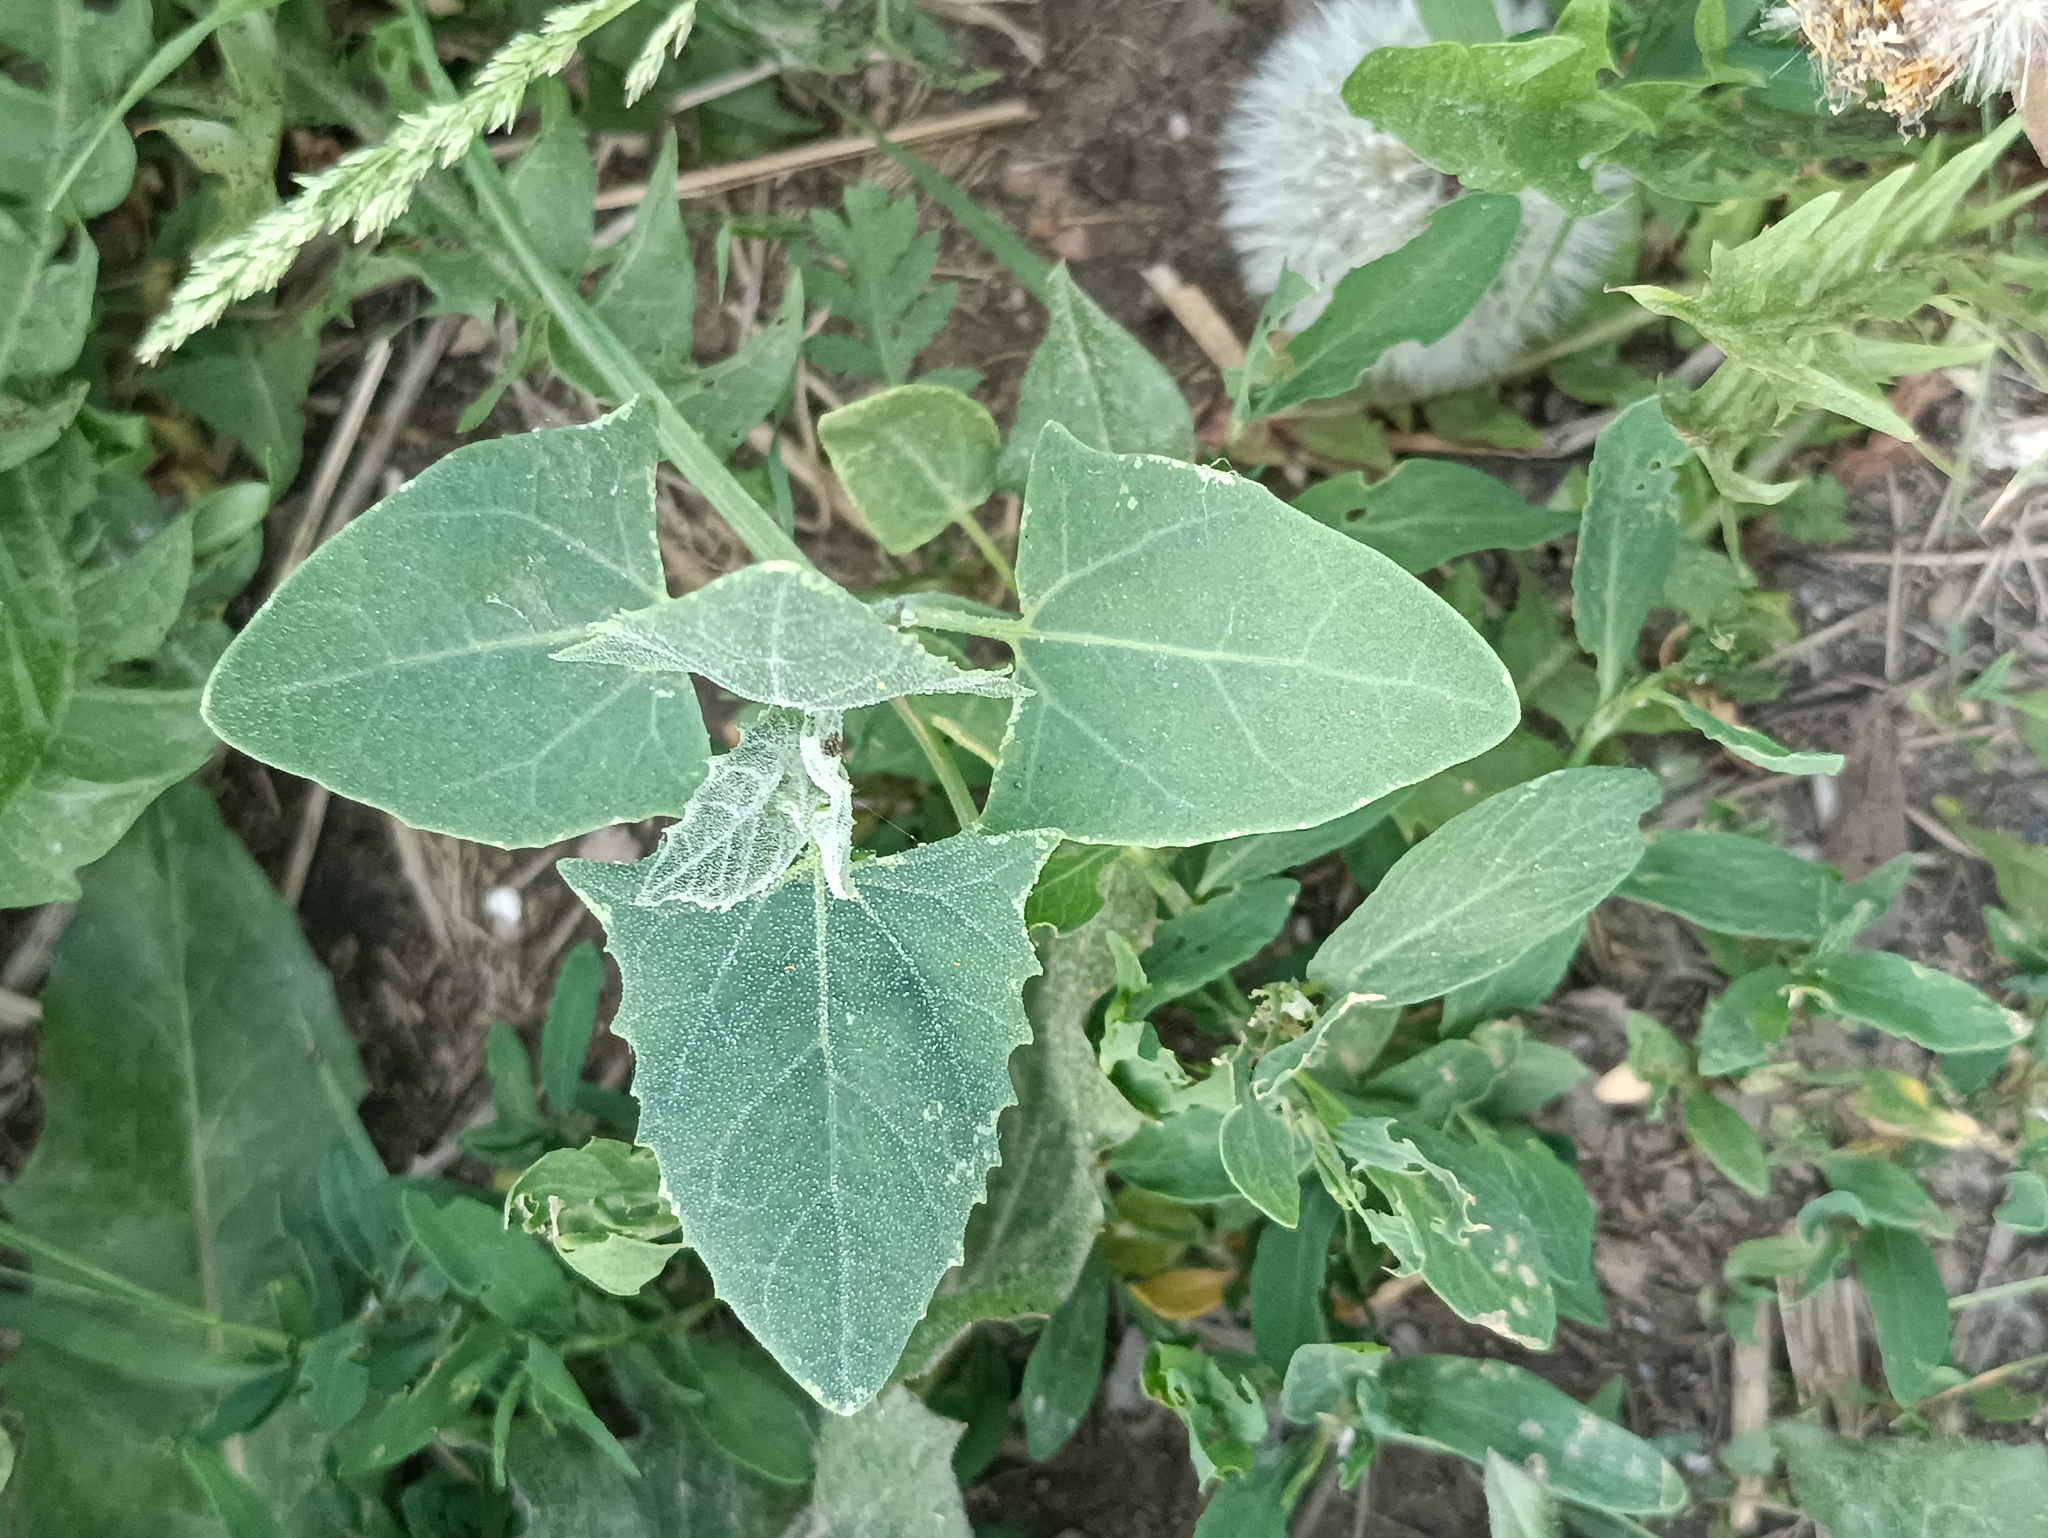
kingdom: Plantae
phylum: Tracheophyta
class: Magnoliopsida
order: Caryophyllales
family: Amaranthaceae
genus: Atriplex
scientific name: Atriplex sagittata
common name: Purple orache
